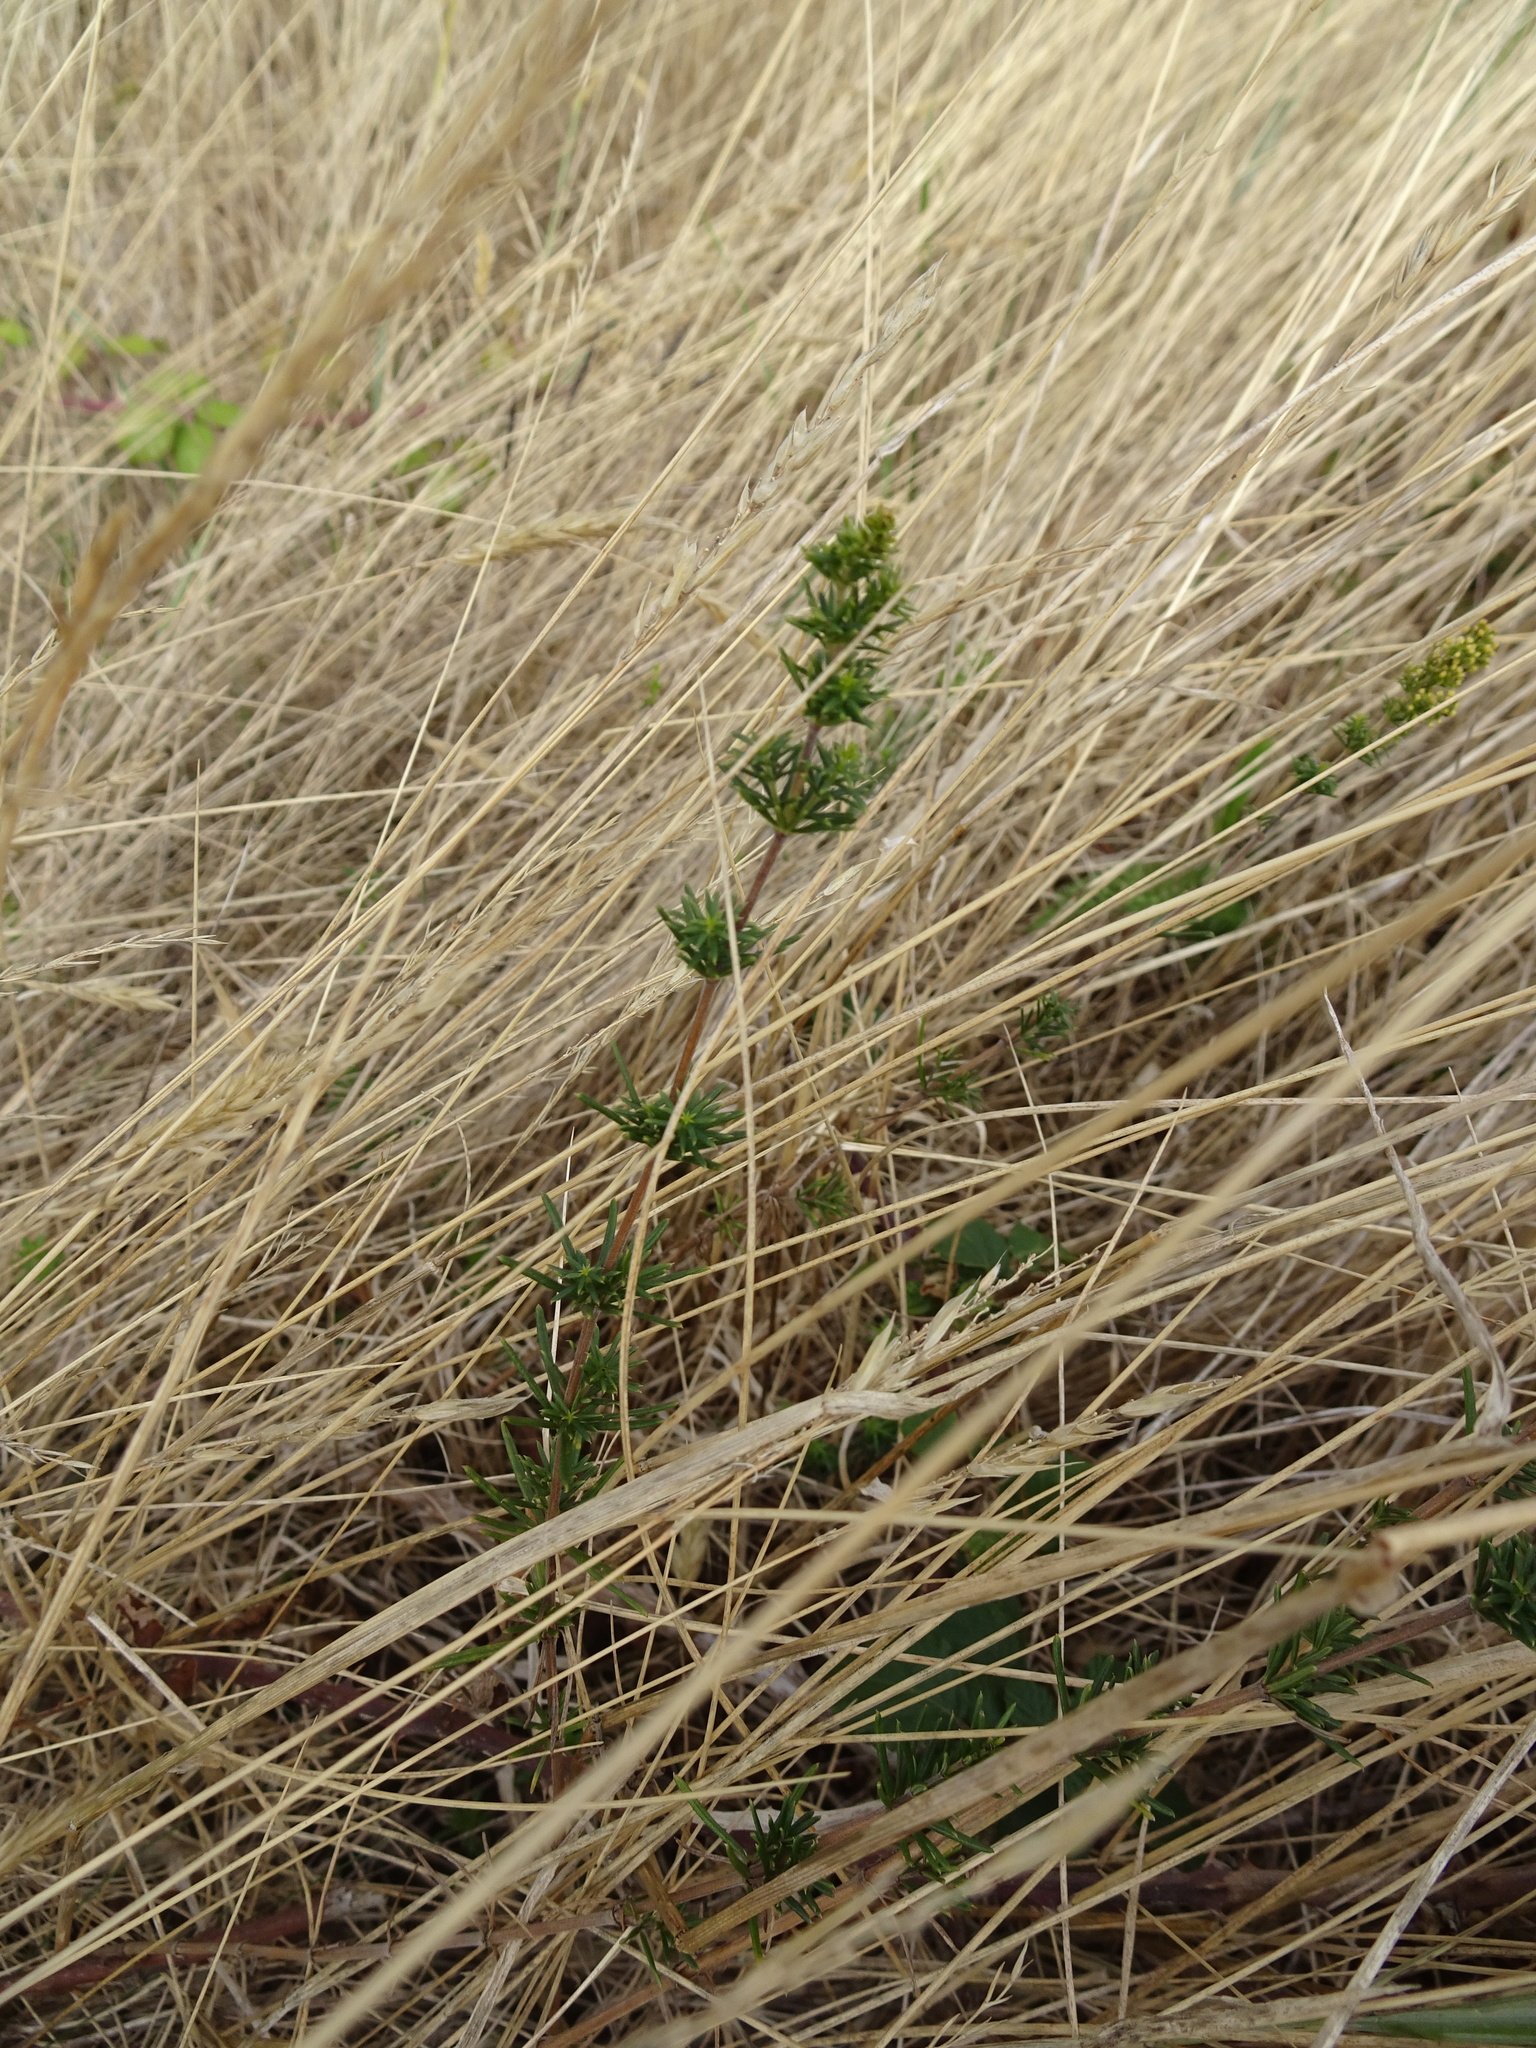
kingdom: Plantae
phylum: Tracheophyta
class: Magnoliopsida
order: Gentianales
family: Rubiaceae
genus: Galium
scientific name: Galium verum
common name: Lady's bedstraw
